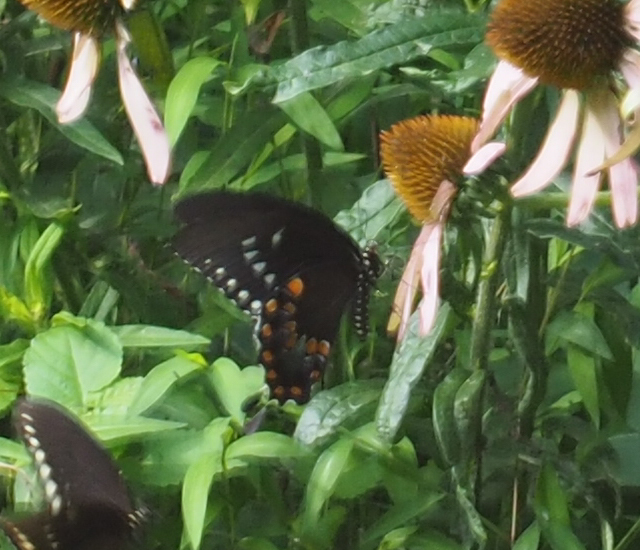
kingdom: Animalia
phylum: Arthropoda
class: Insecta
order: Lepidoptera
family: Papilionidae
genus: Papilio
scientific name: Papilio troilus
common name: Spicebush swallowtail
